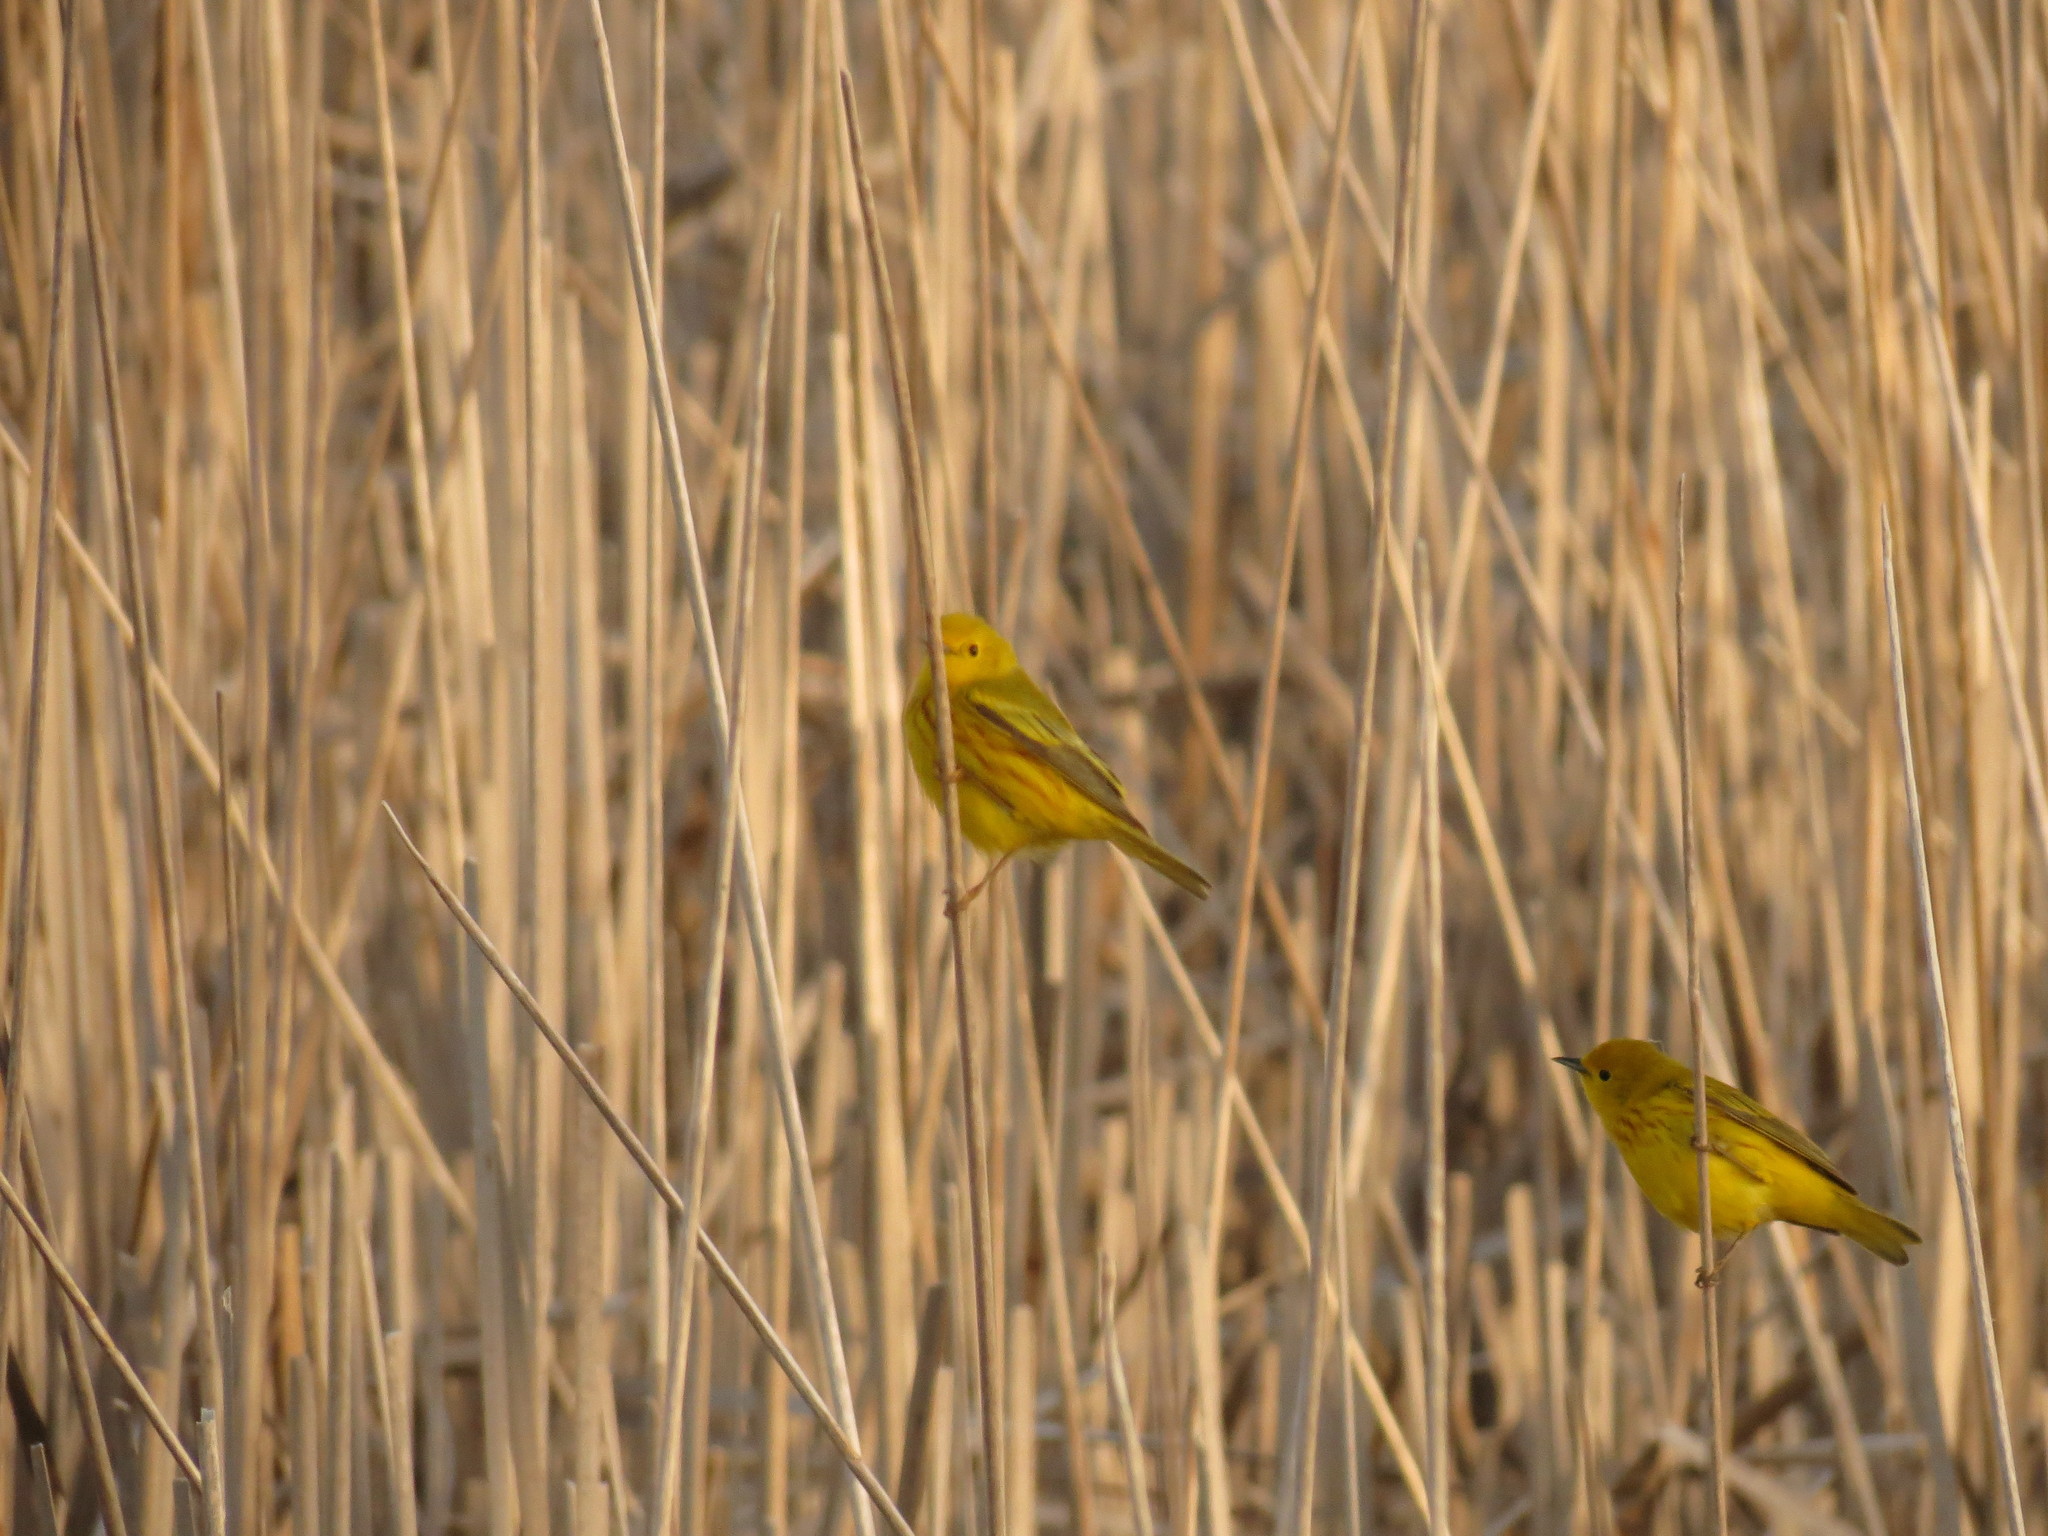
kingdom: Animalia
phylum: Chordata
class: Aves
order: Passeriformes
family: Parulidae
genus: Setophaga
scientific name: Setophaga petechia
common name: Yellow warbler
